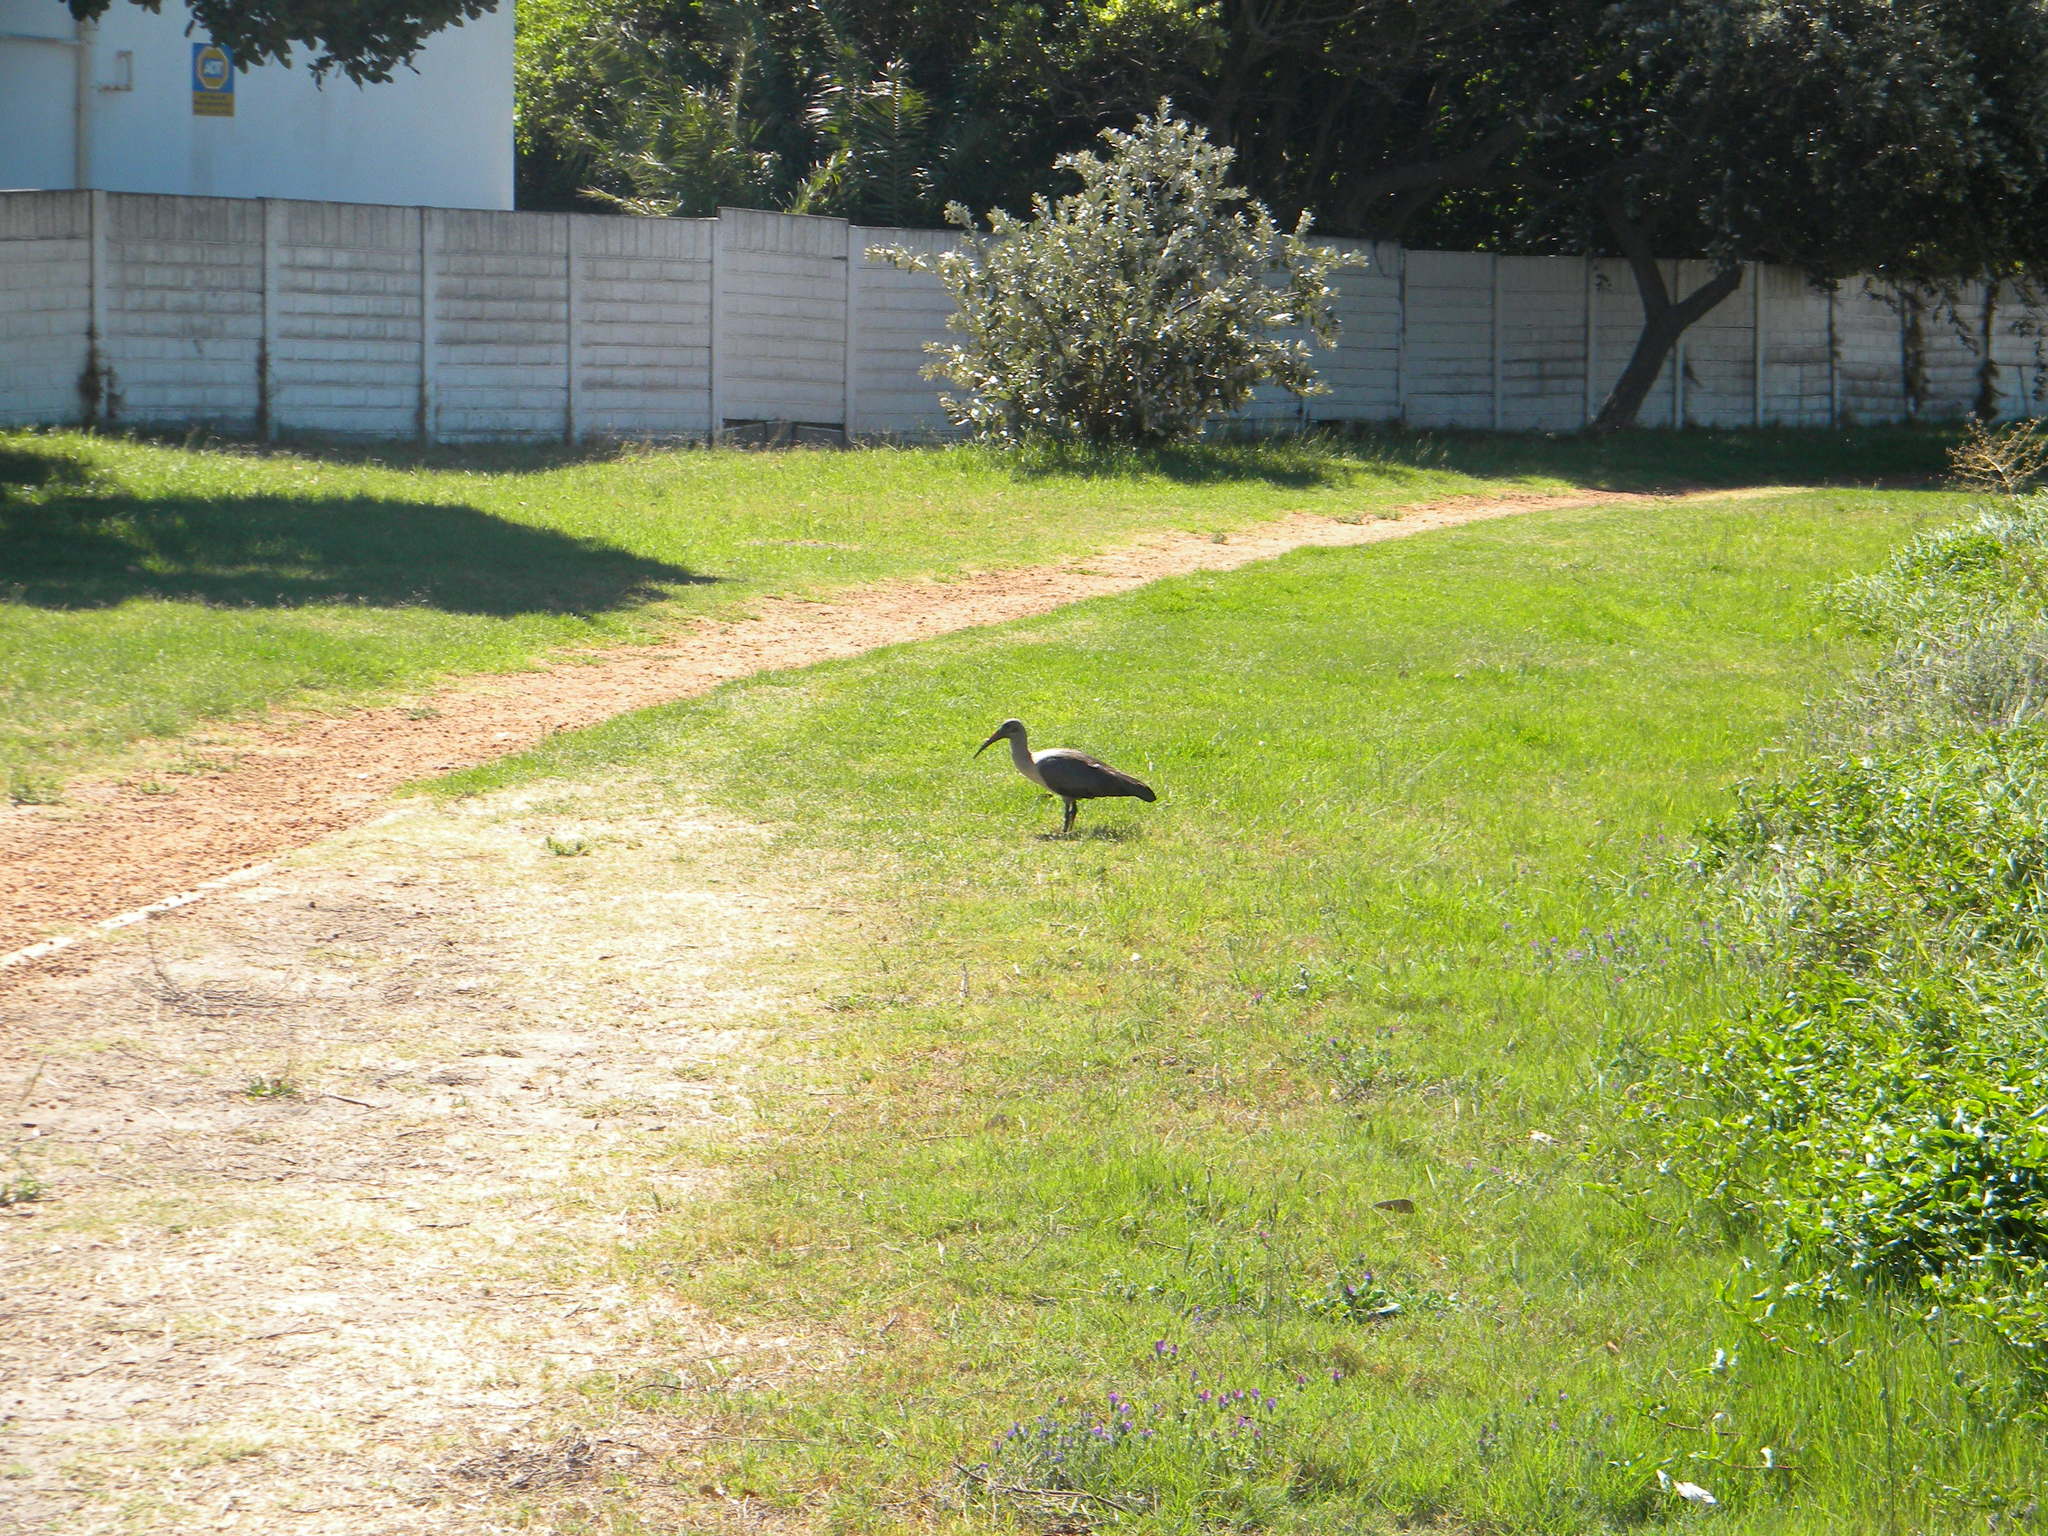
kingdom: Animalia
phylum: Chordata
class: Aves
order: Pelecaniformes
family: Threskiornithidae
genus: Bostrychia
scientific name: Bostrychia hagedash
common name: Hadada ibis
